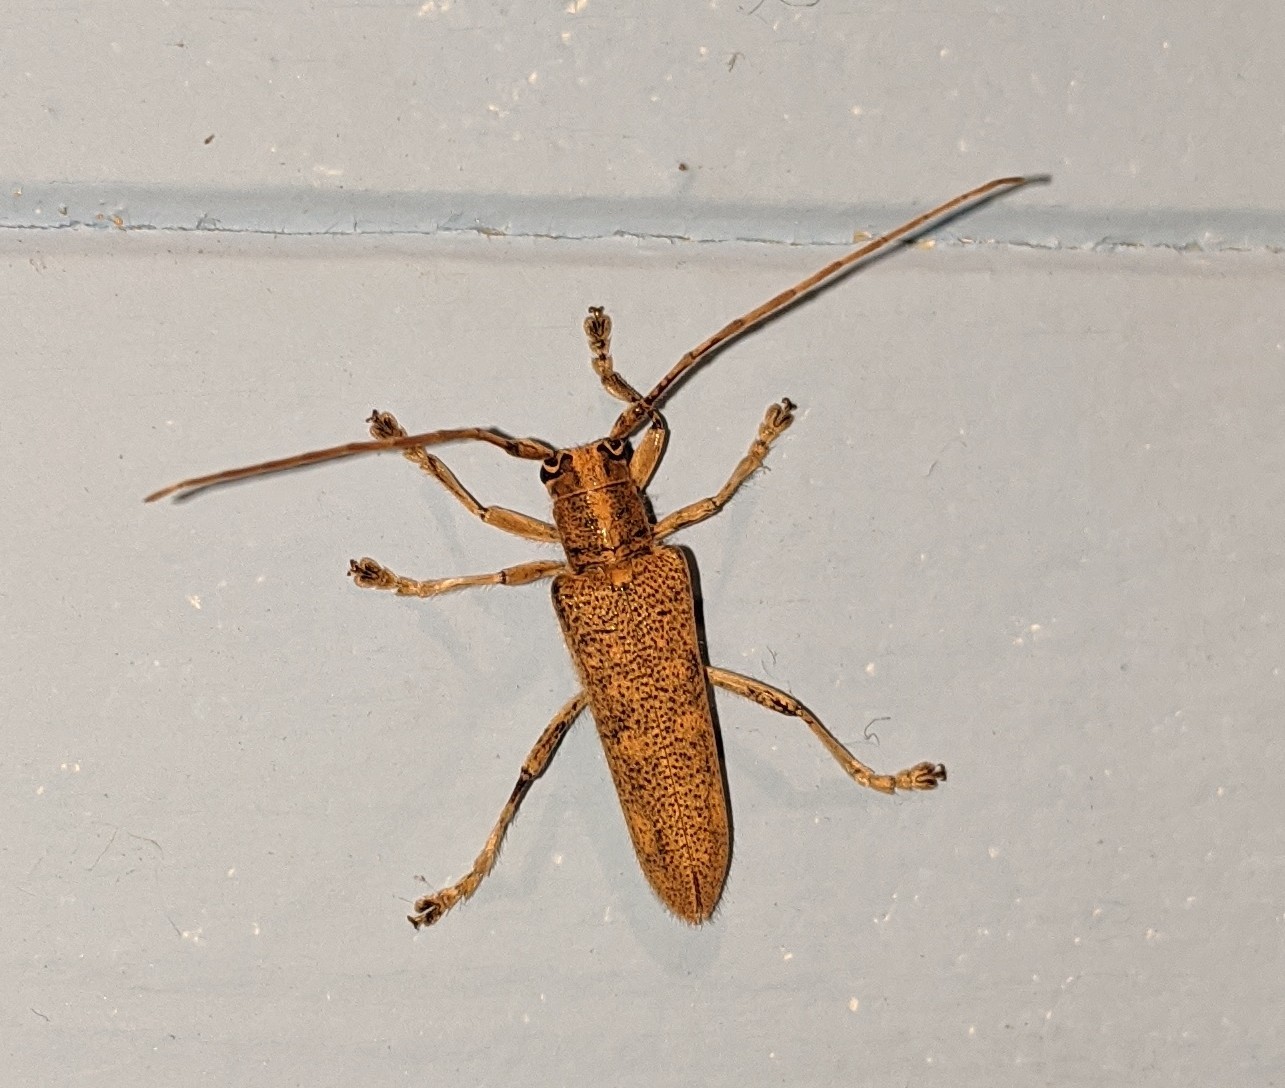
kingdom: Animalia
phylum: Arthropoda
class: Insecta
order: Coleoptera
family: Cerambycidae
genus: Saperda
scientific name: Saperda calcarata
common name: Poplar borer
